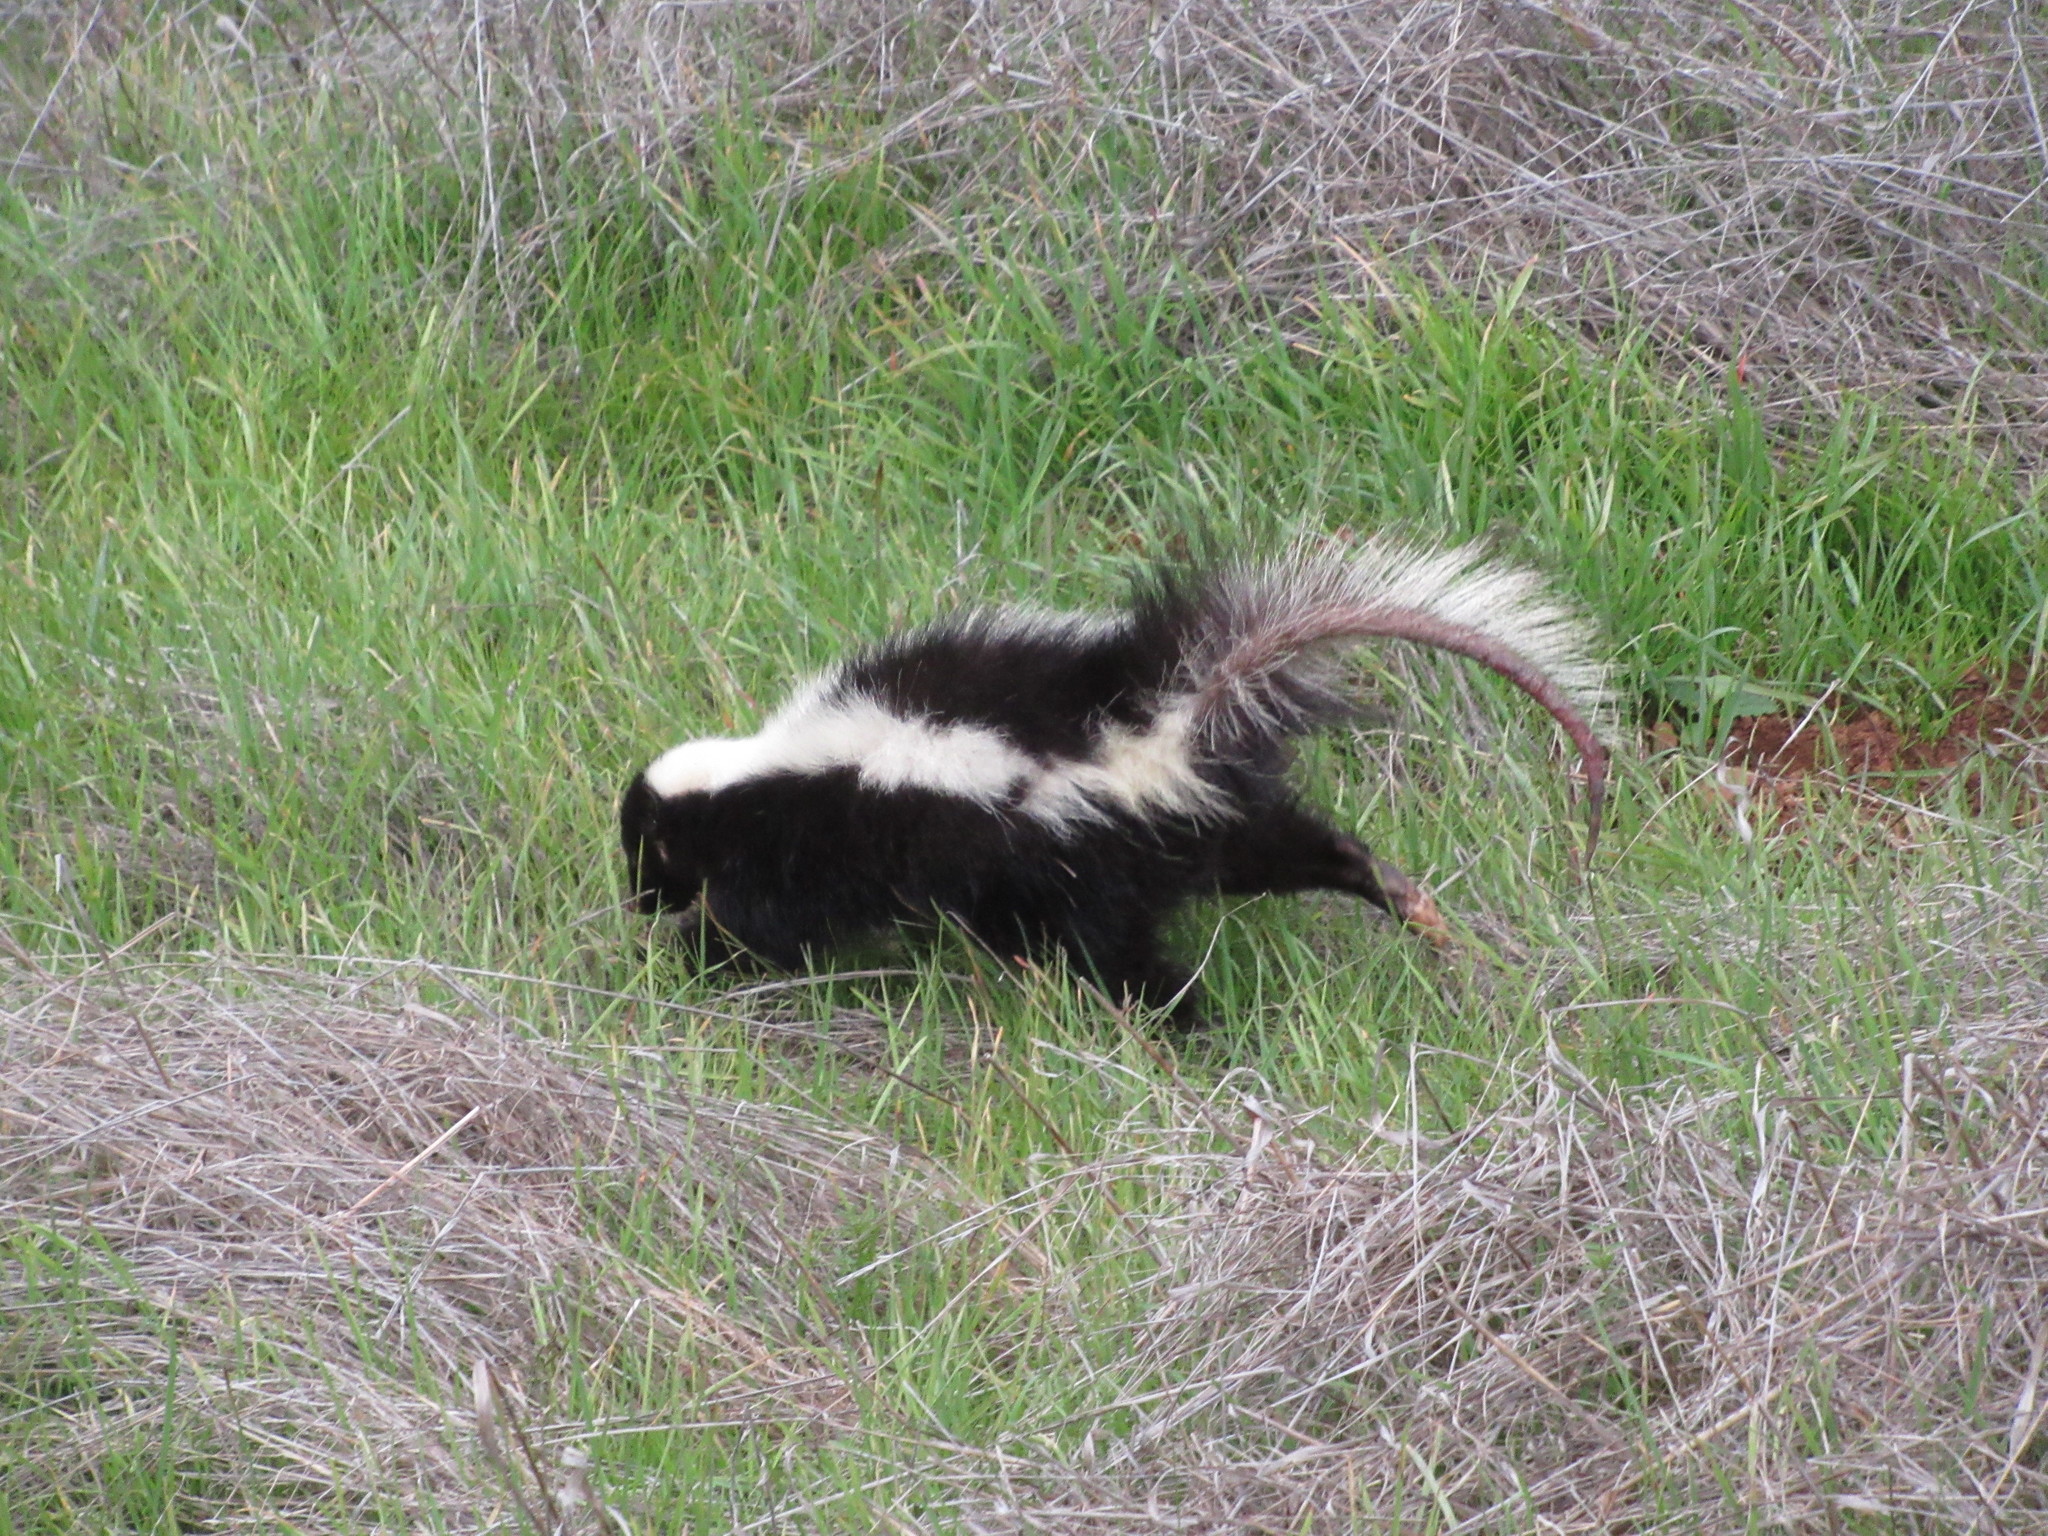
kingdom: Animalia
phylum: Chordata
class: Mammalia
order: Carnivora
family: Mephitidae
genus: Mephitis
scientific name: Mephitis mephitis
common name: Striped skunk
